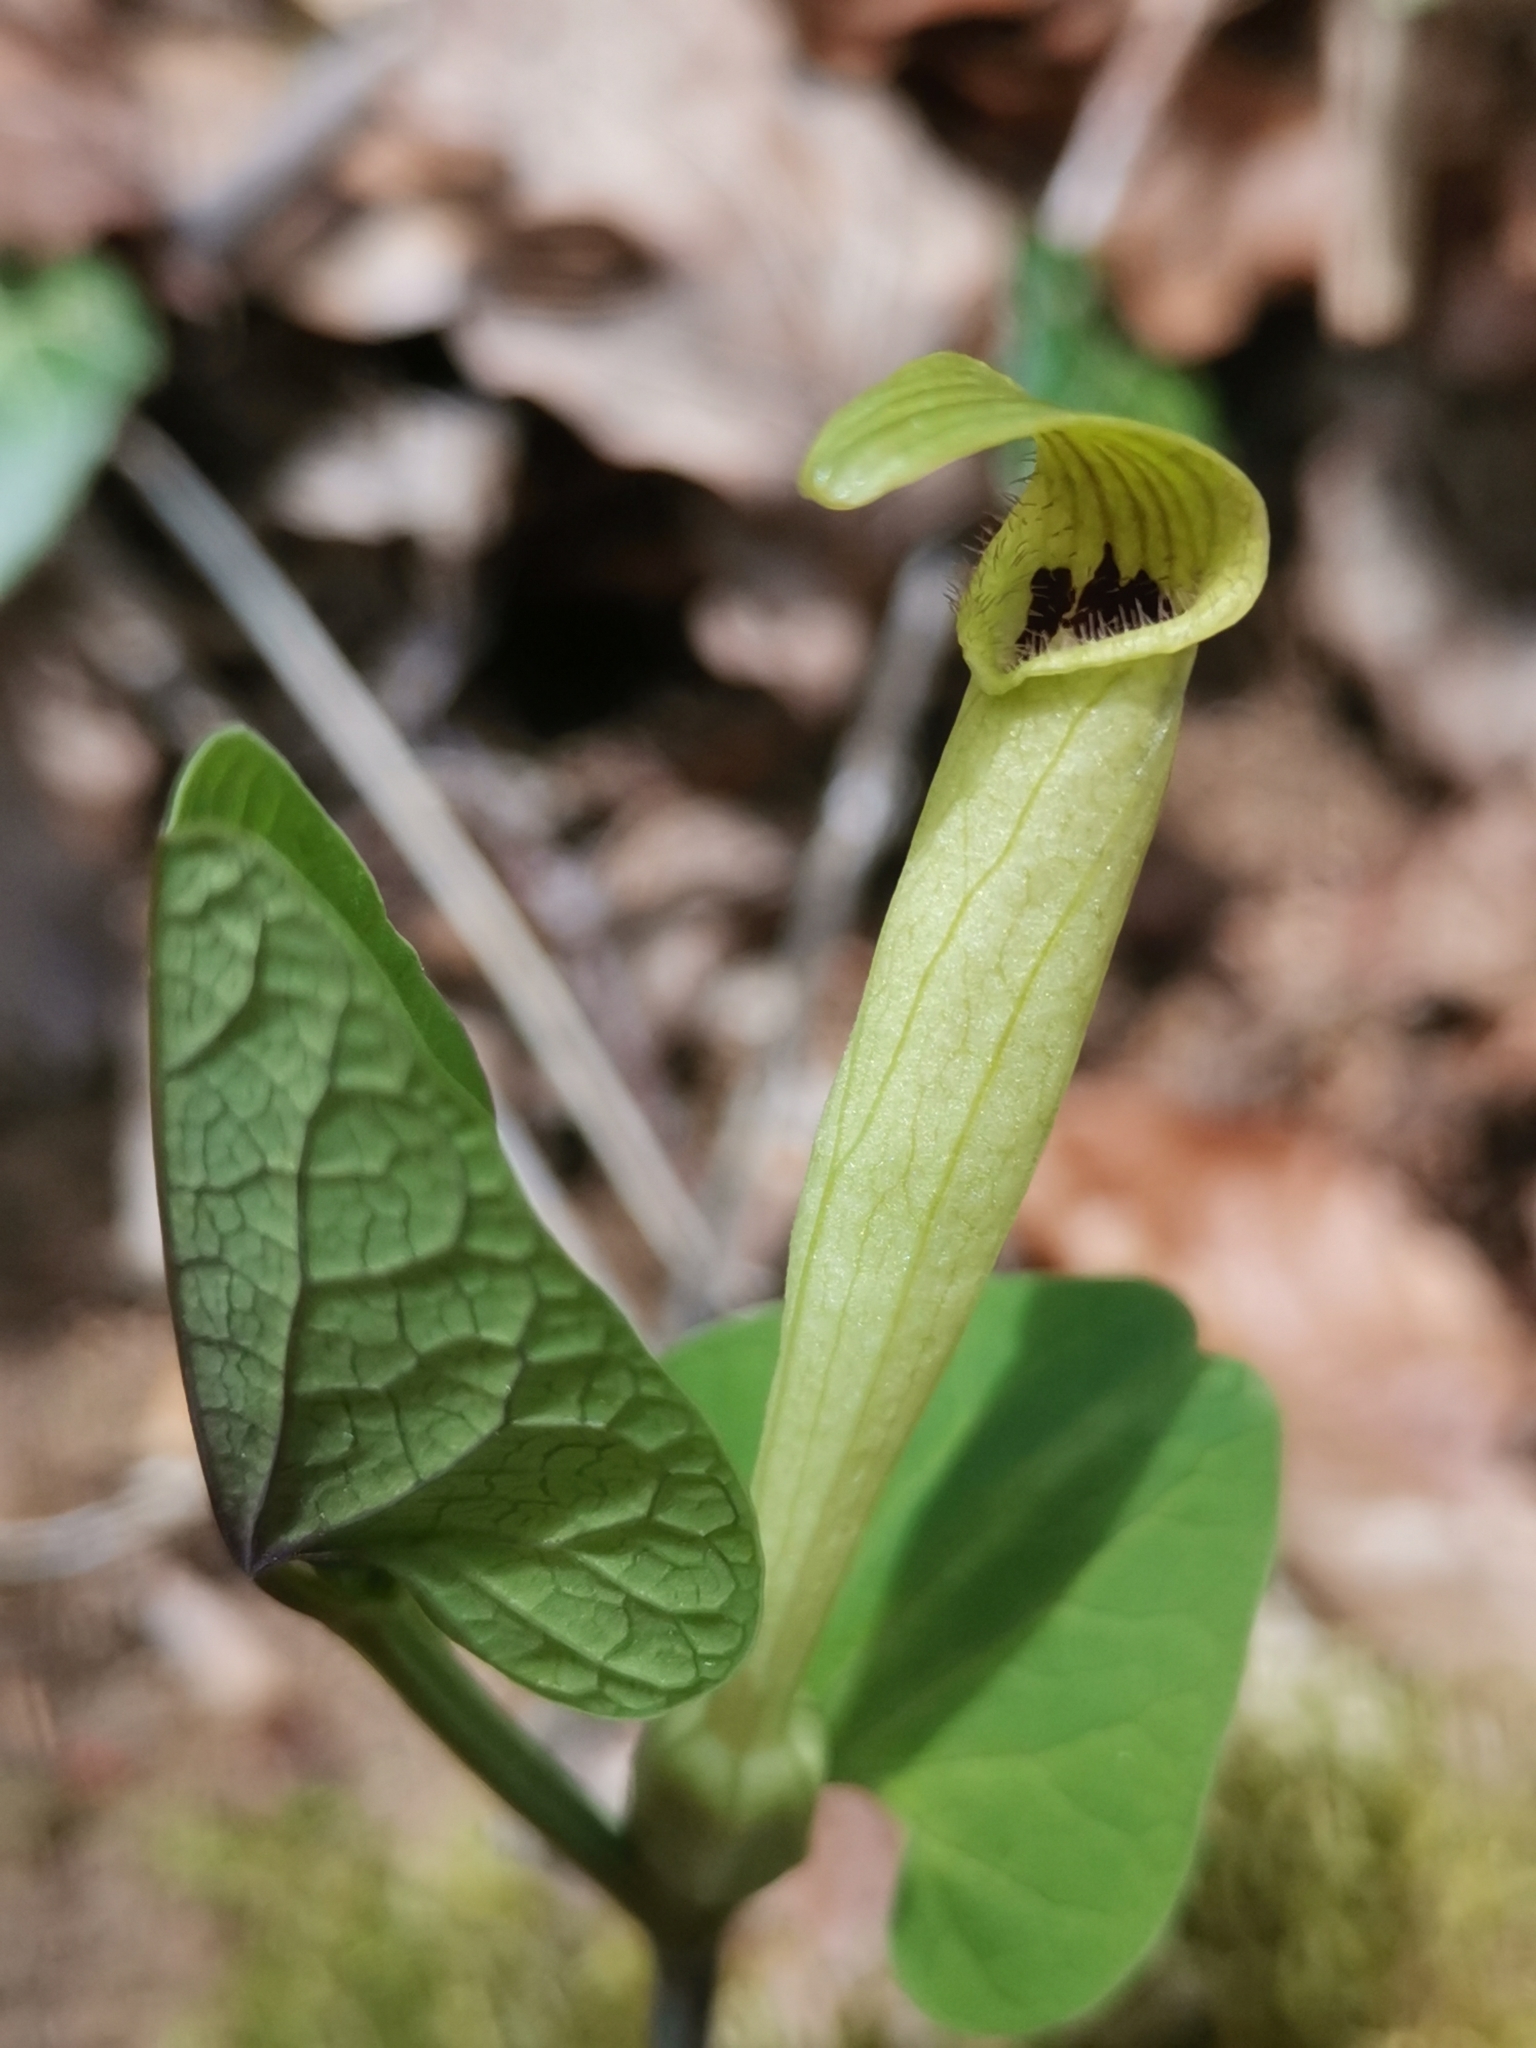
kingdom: Plantae
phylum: Tracheophyta
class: Magnoliopsida
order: Piperales
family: Aristolochiaceae
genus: Aristolochia
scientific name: Aristolochia lutea
